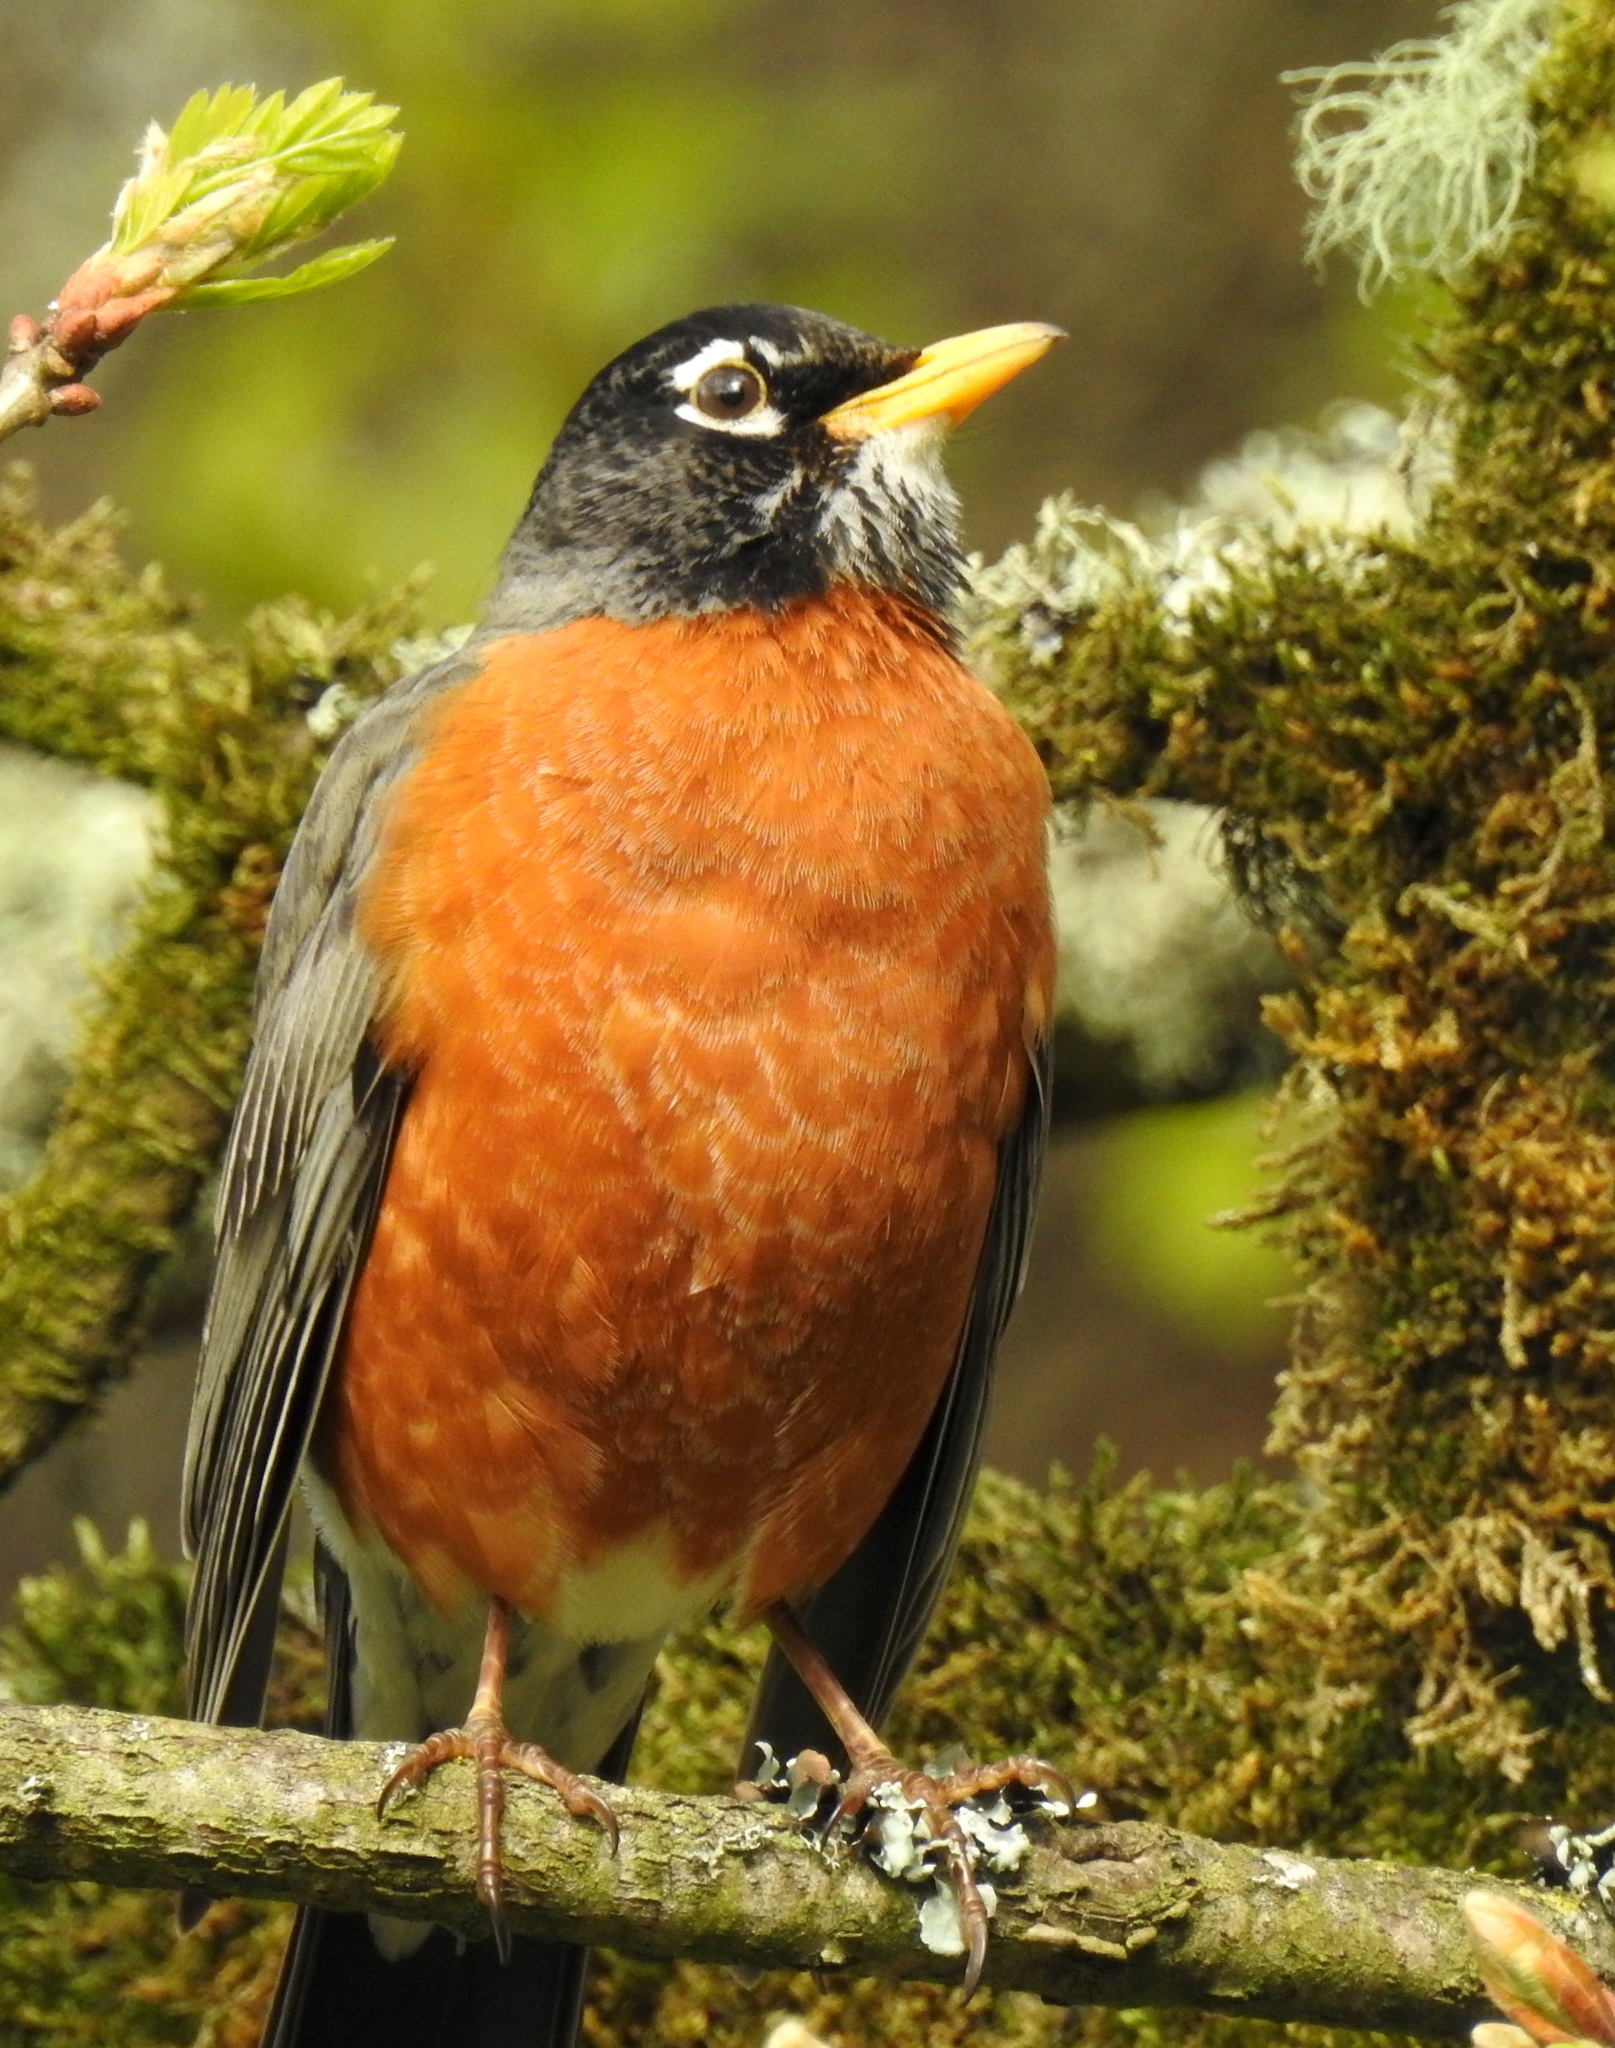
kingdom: Animalia
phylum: Chordata
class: Aves
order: Passeriformes
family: Turdidae
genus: Turdus
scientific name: Turdus migratorius
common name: American robin
